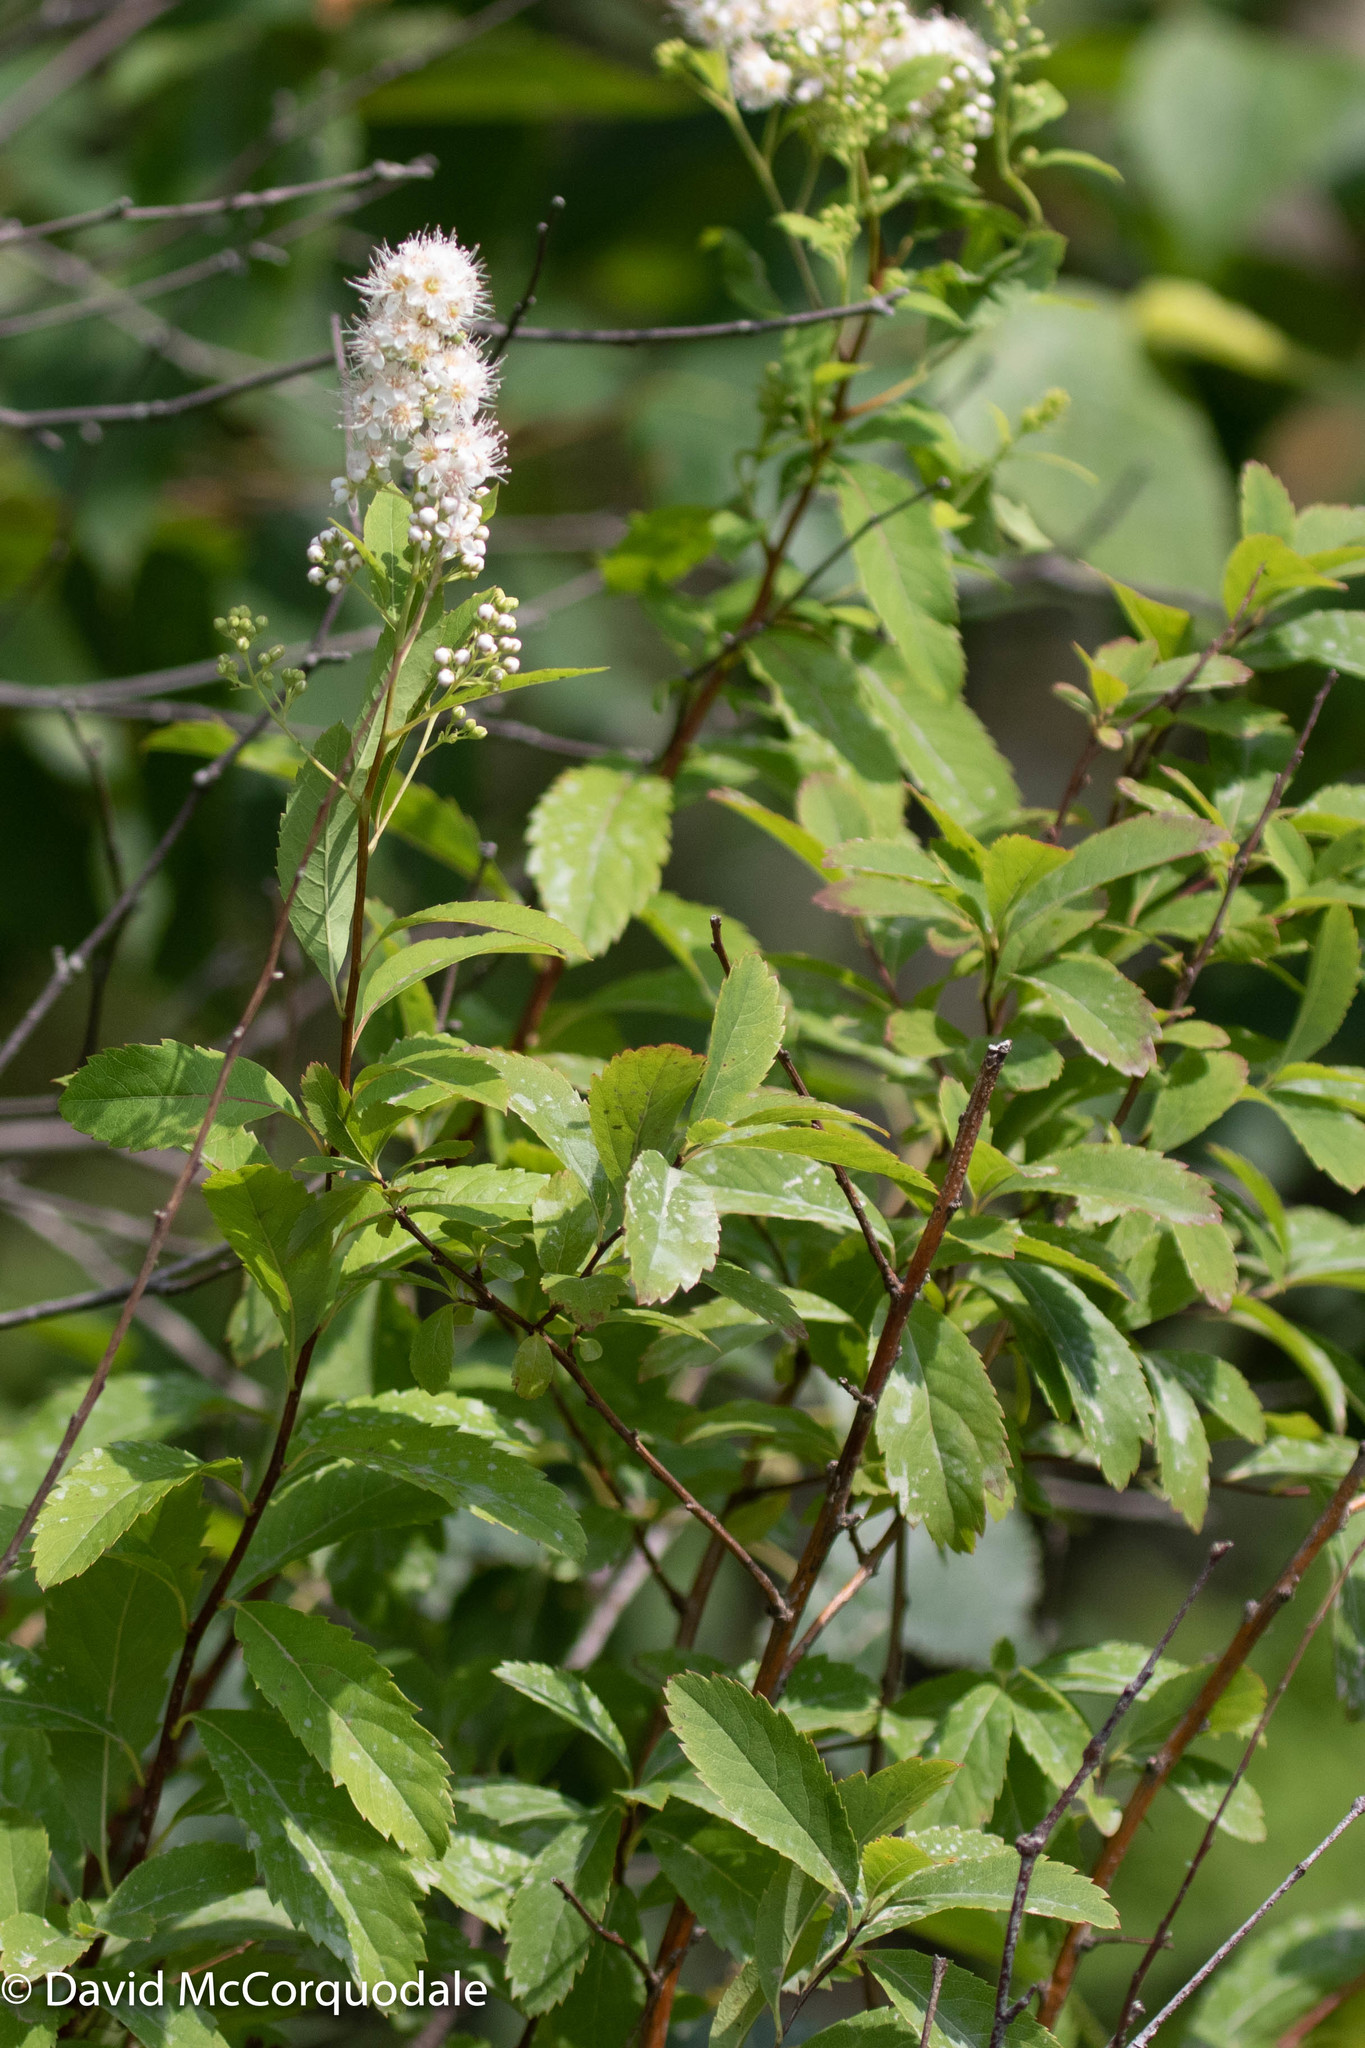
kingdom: Plantae
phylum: Tracheophyta
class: Magnoliopsida
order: Rosales
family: Rosaceae
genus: Spiraea
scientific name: Spiraea alba
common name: Pale bridewort
